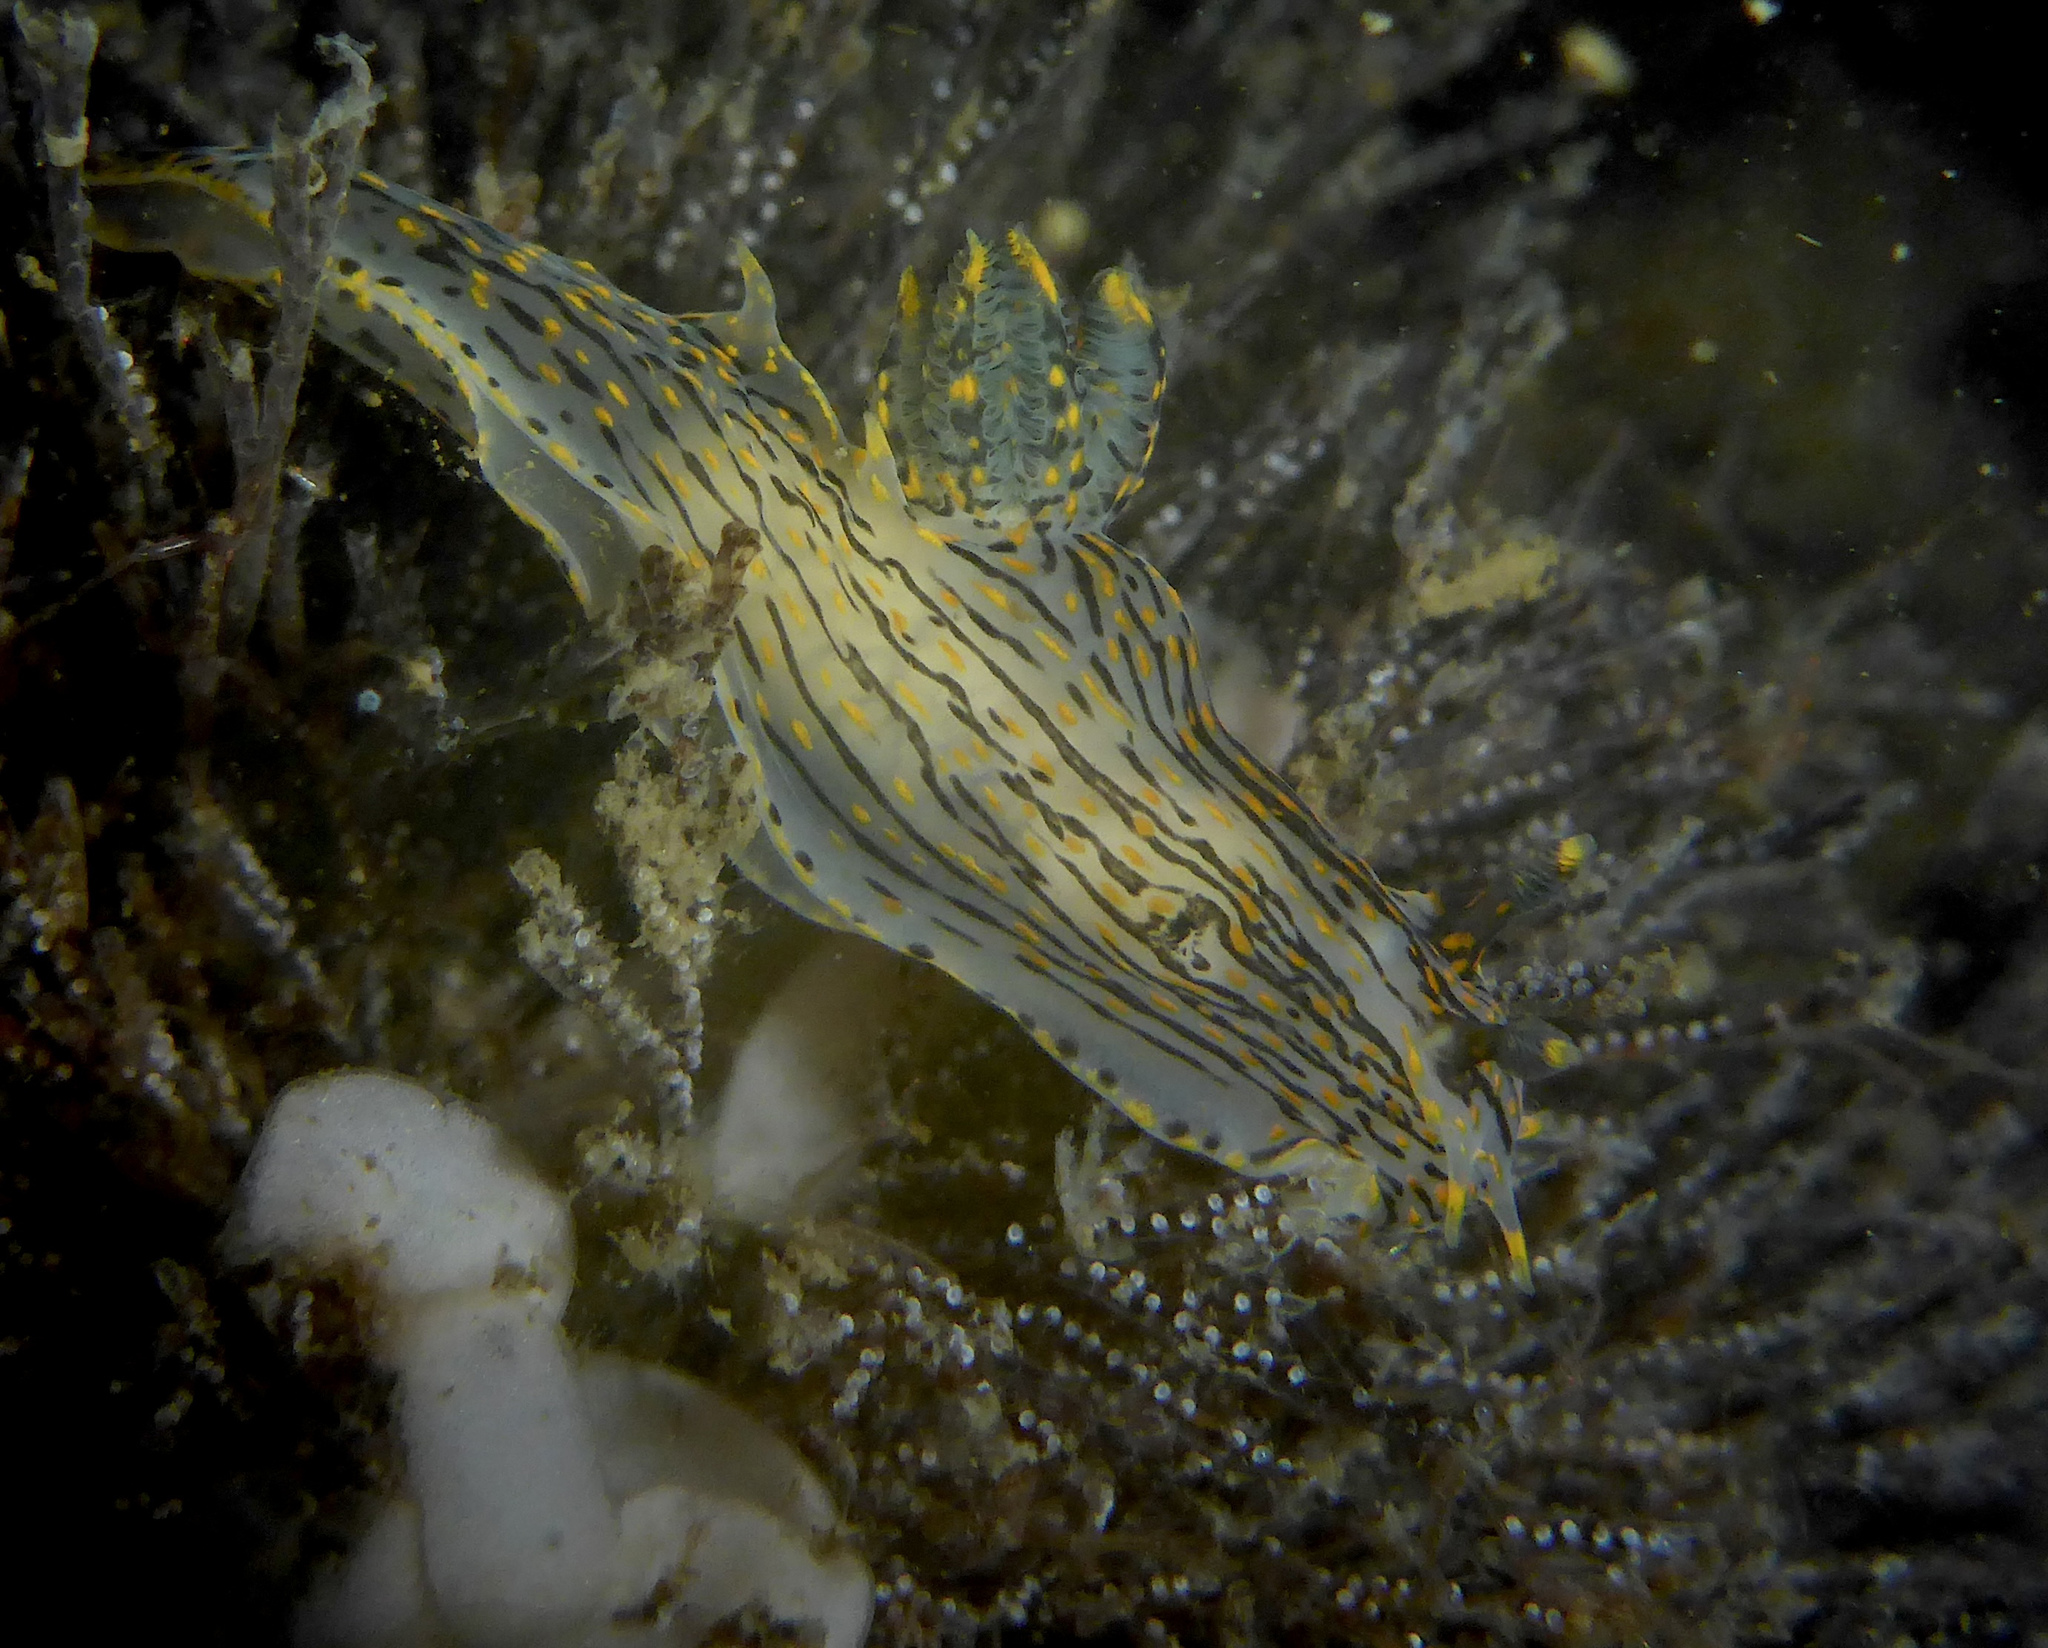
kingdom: Animalia
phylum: Mollusca
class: Gastropoda
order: Nudibranchia
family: Polyceridae
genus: Polycera
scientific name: Polycera atra
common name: Orange-spike polycera
